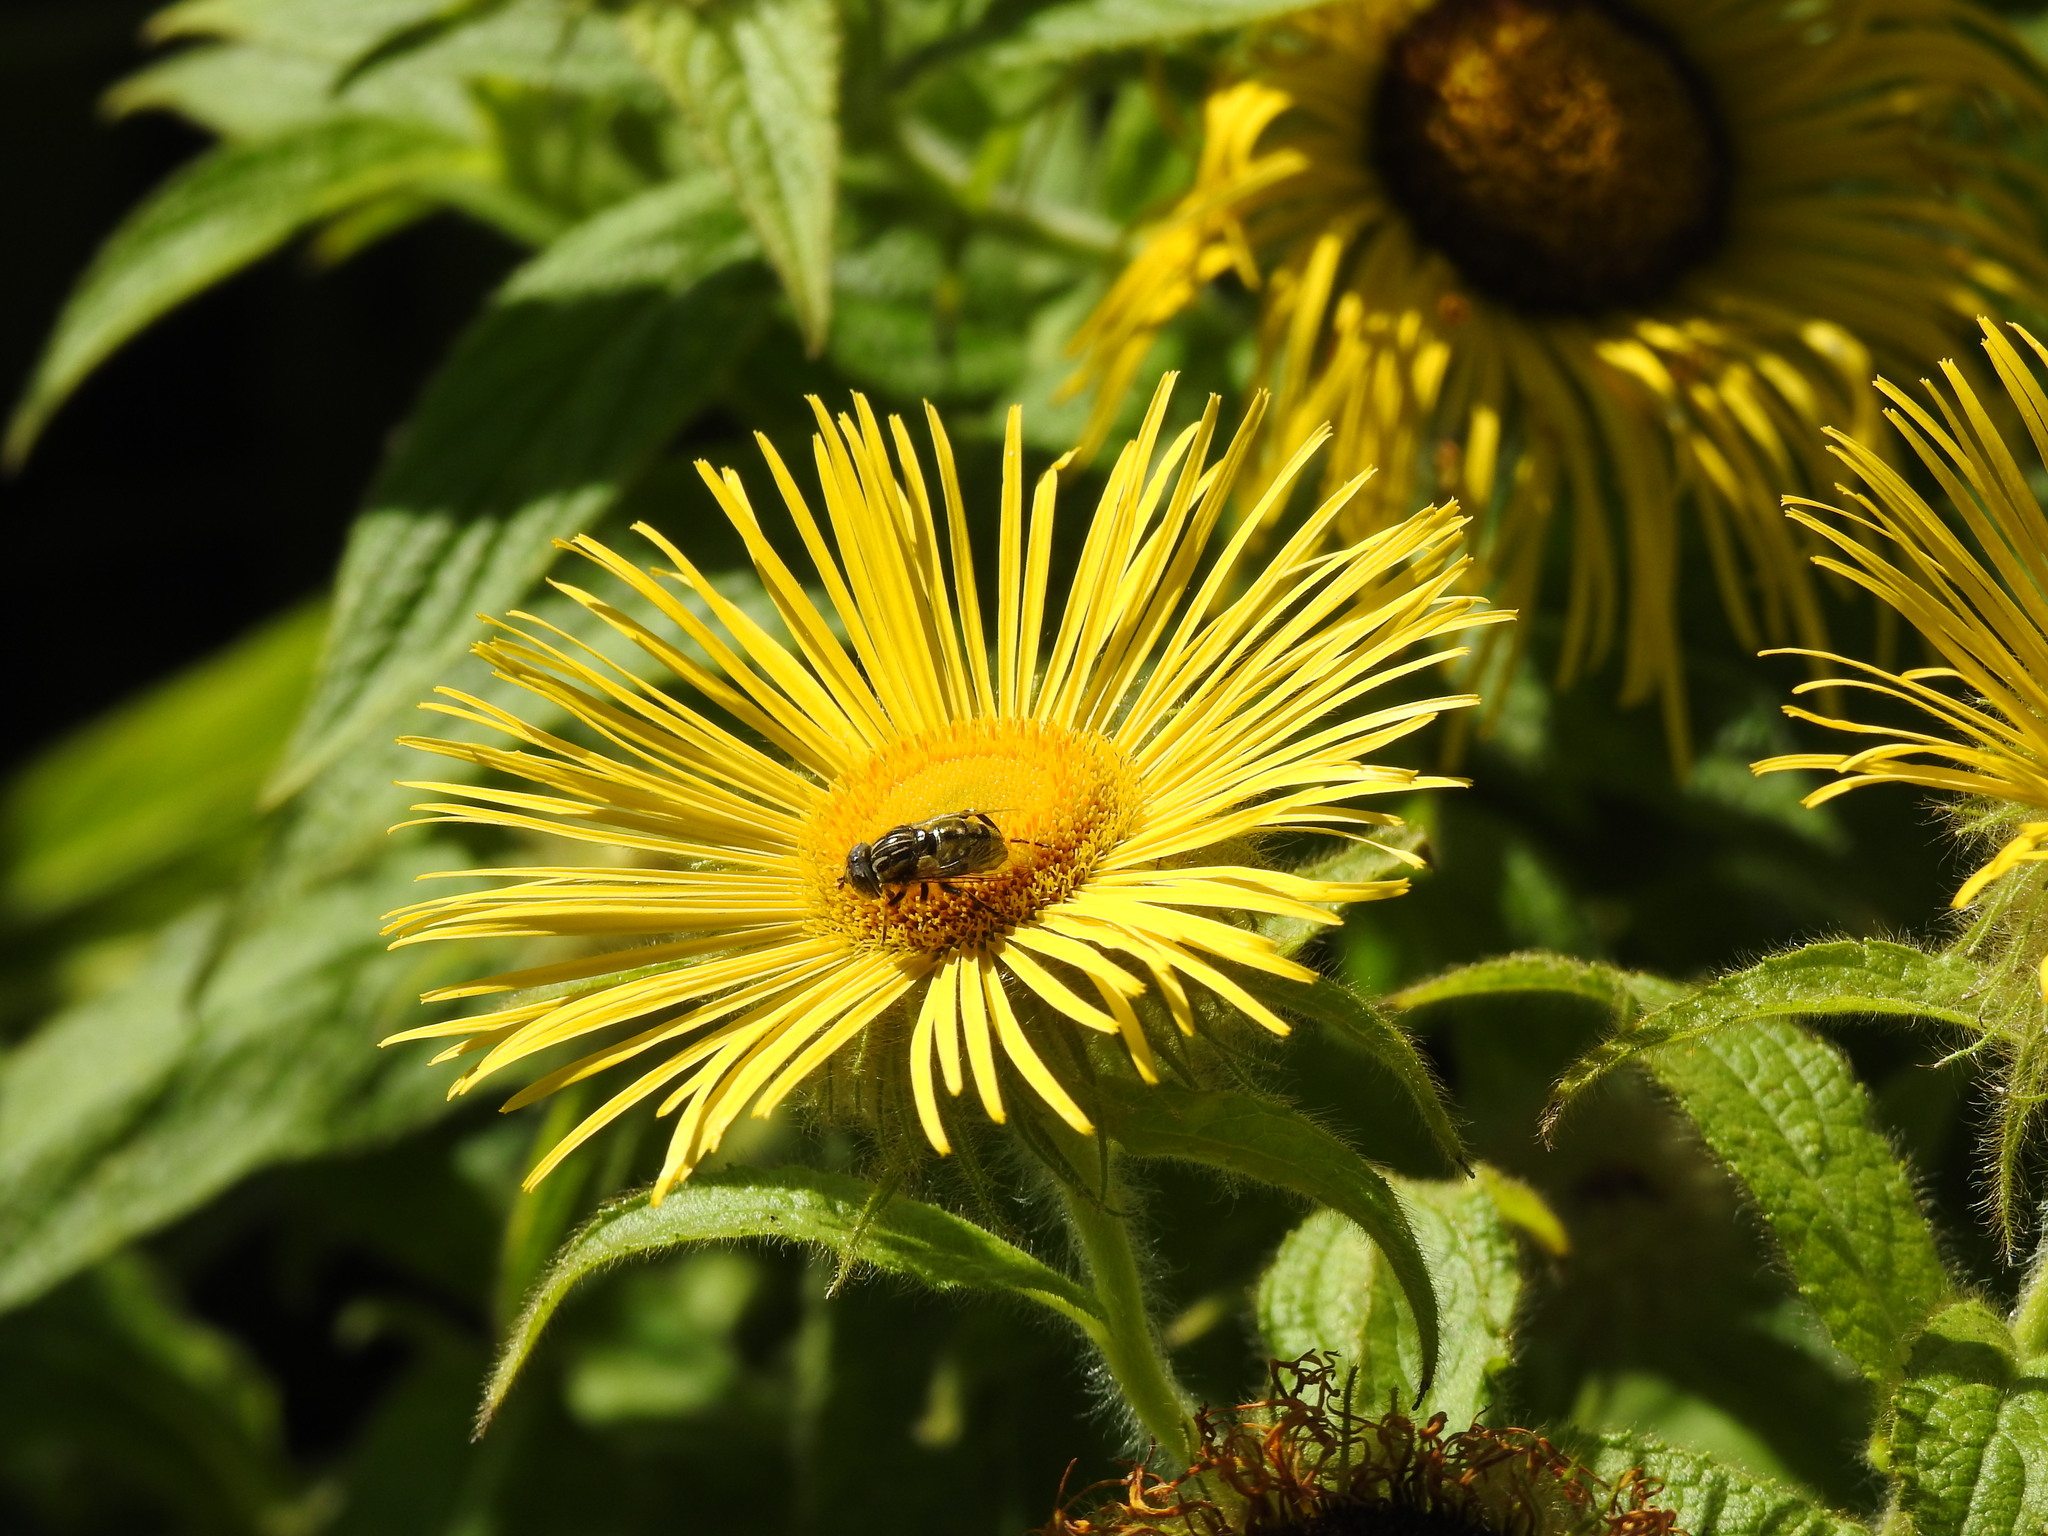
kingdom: Animalia
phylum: Arthropoda
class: Insecta
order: Diptera
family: Syrphidae
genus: Eristalinus
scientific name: Eristalinus sepulchralis
